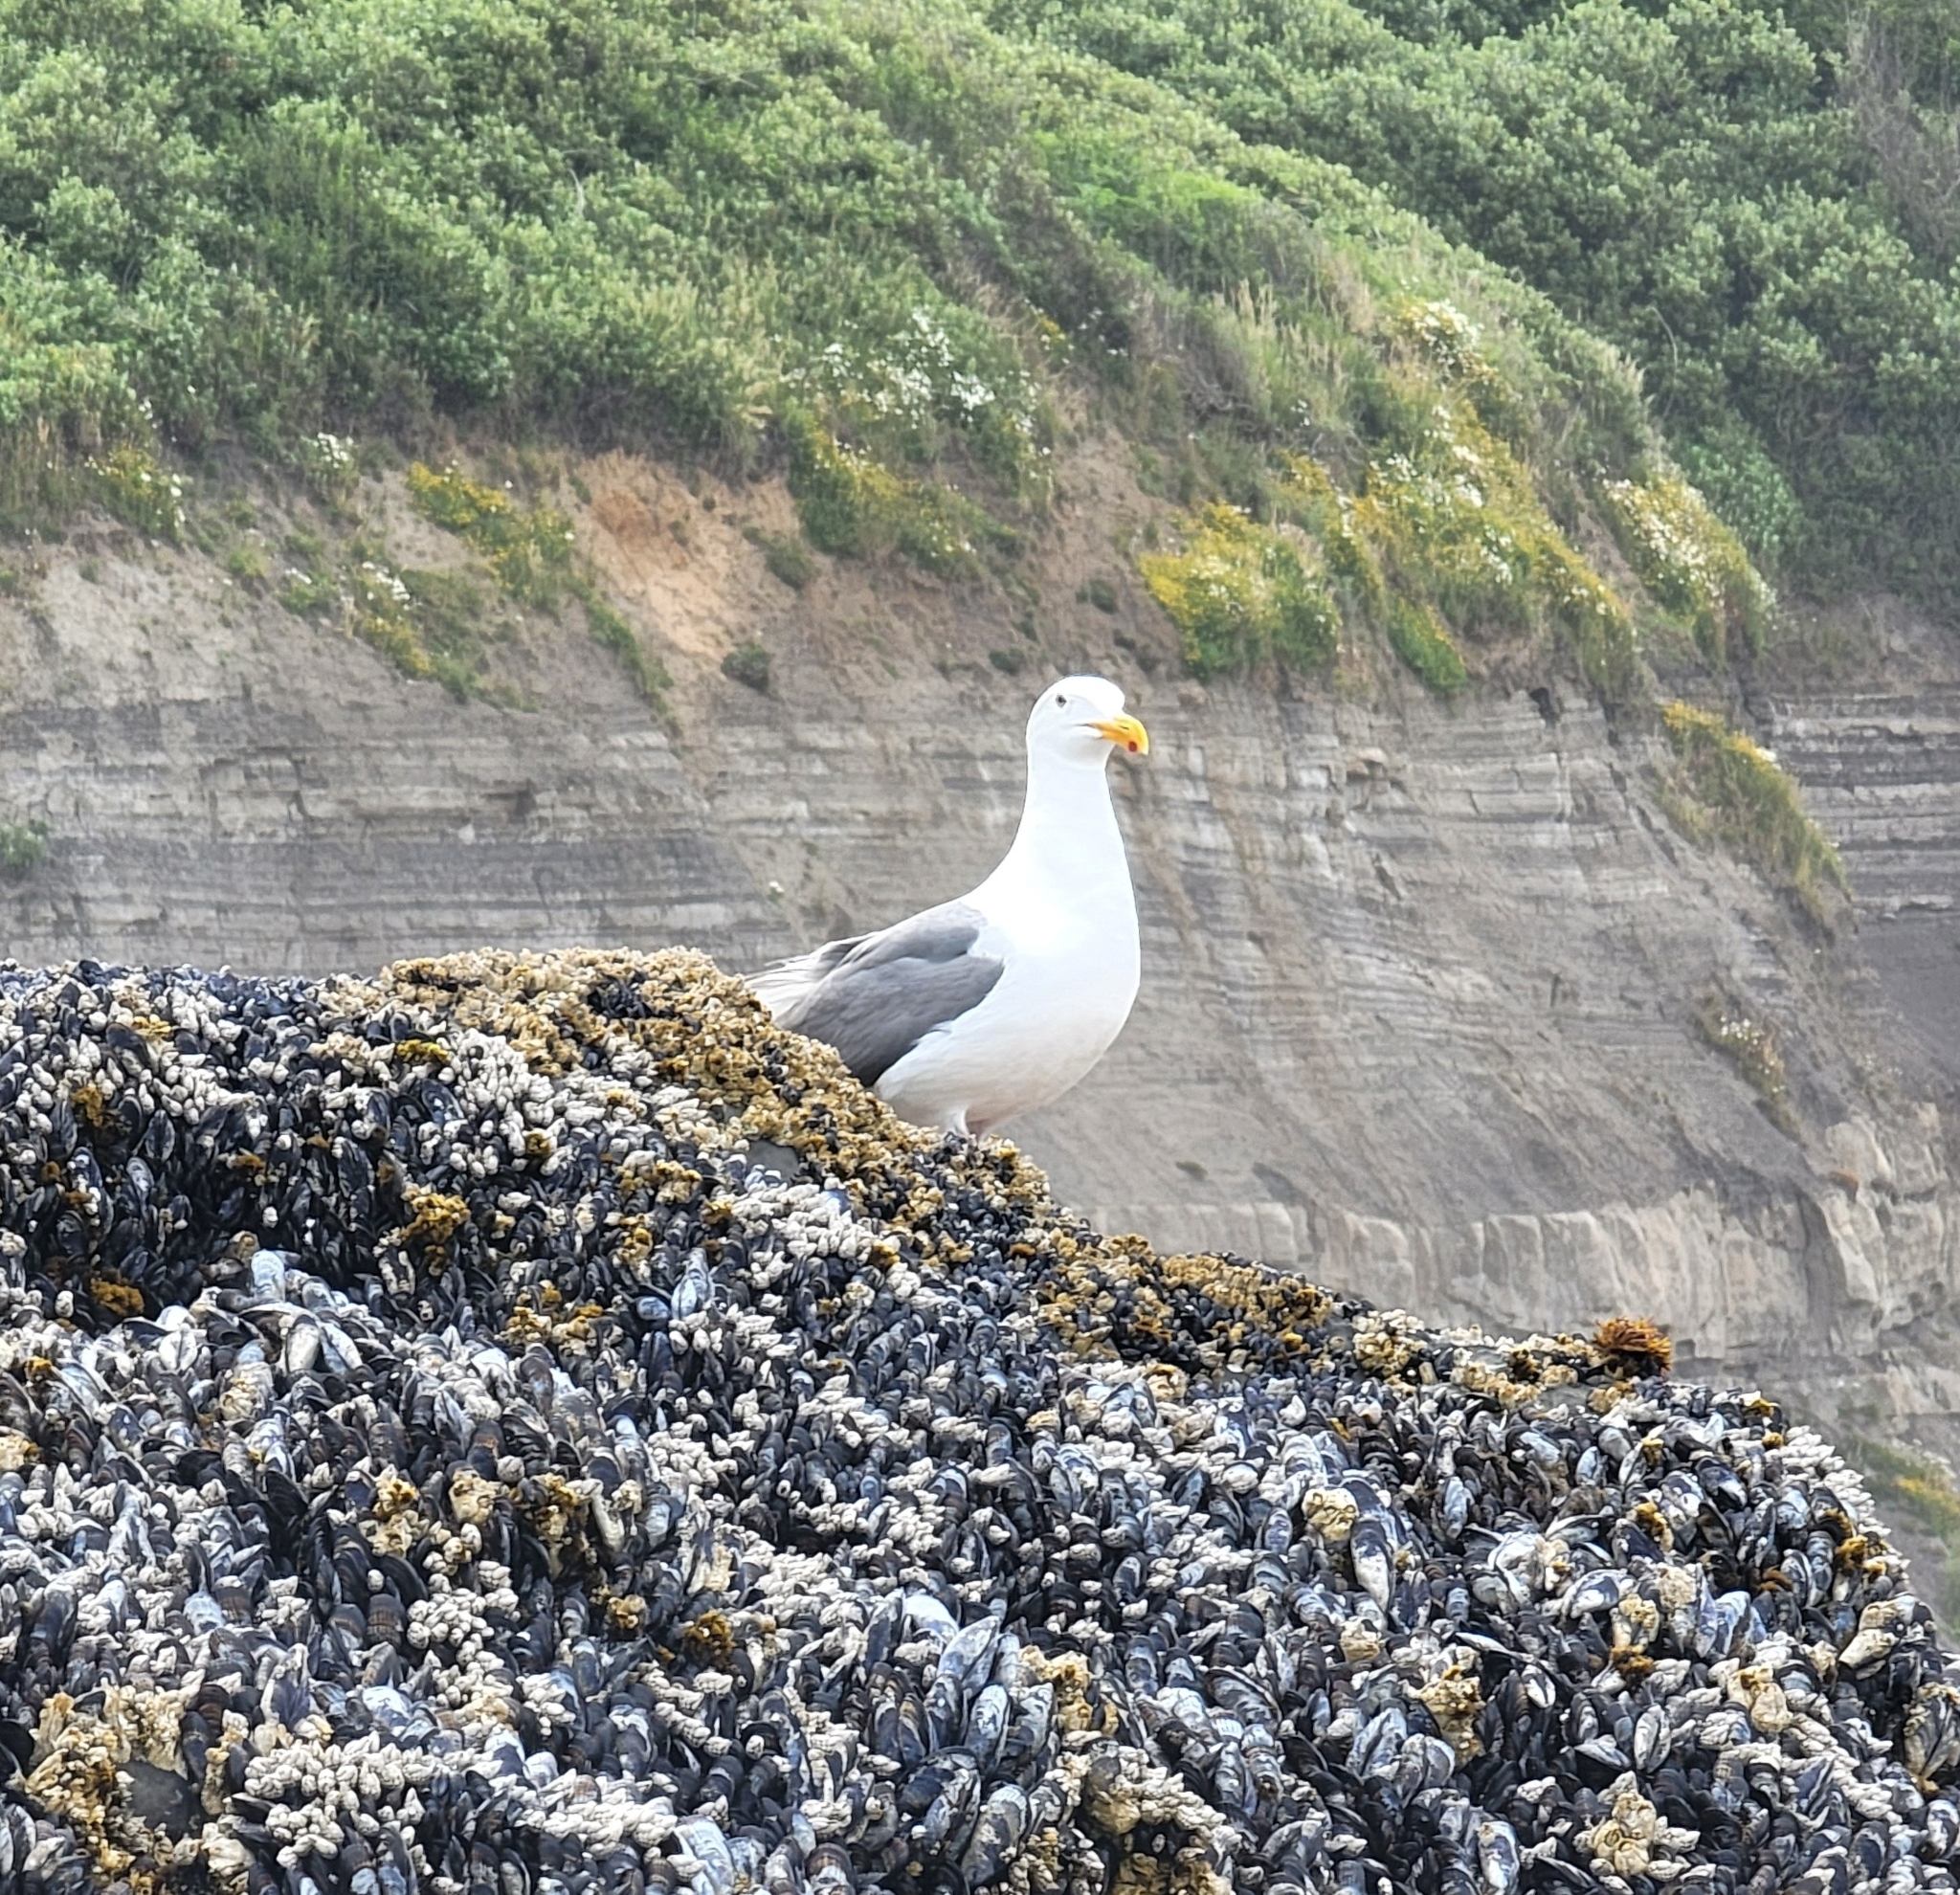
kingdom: Animalia
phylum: Chordata
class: Aves
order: Charadriiformes
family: Laridae
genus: Larus
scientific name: Larus occidentalis
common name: Western gull
